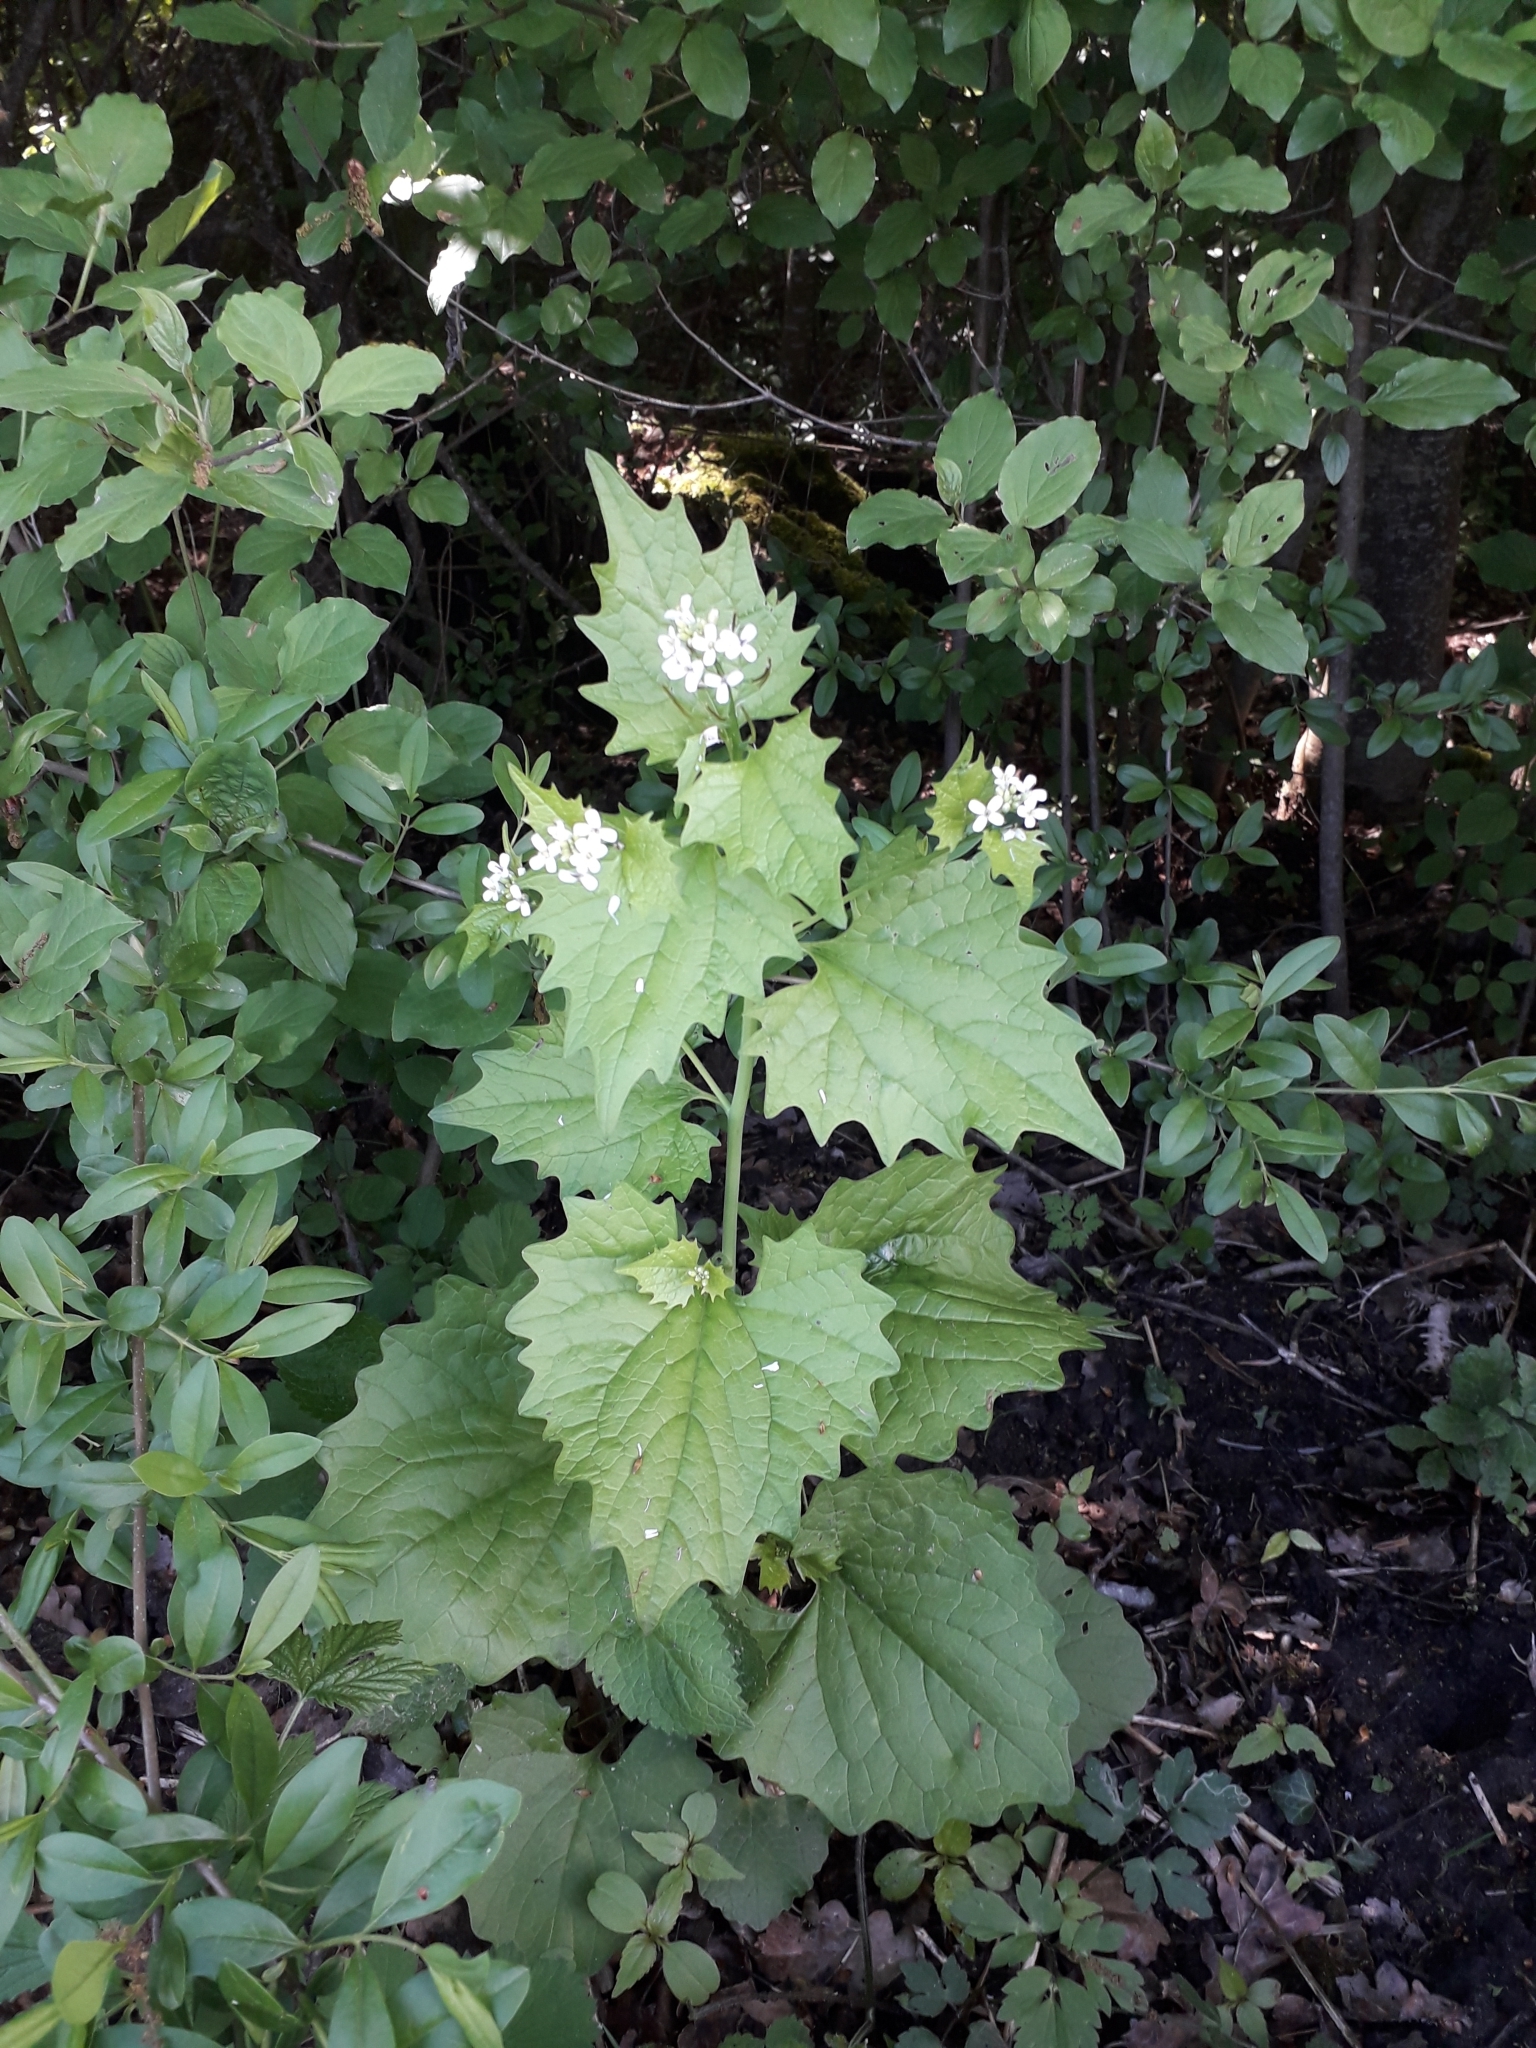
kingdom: Plantae
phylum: Tracheophyta
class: Magnoliopsida
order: Brassicales
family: Brassicaceae
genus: Alliaria
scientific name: Alliaria petiolata
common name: Garlic mustard
